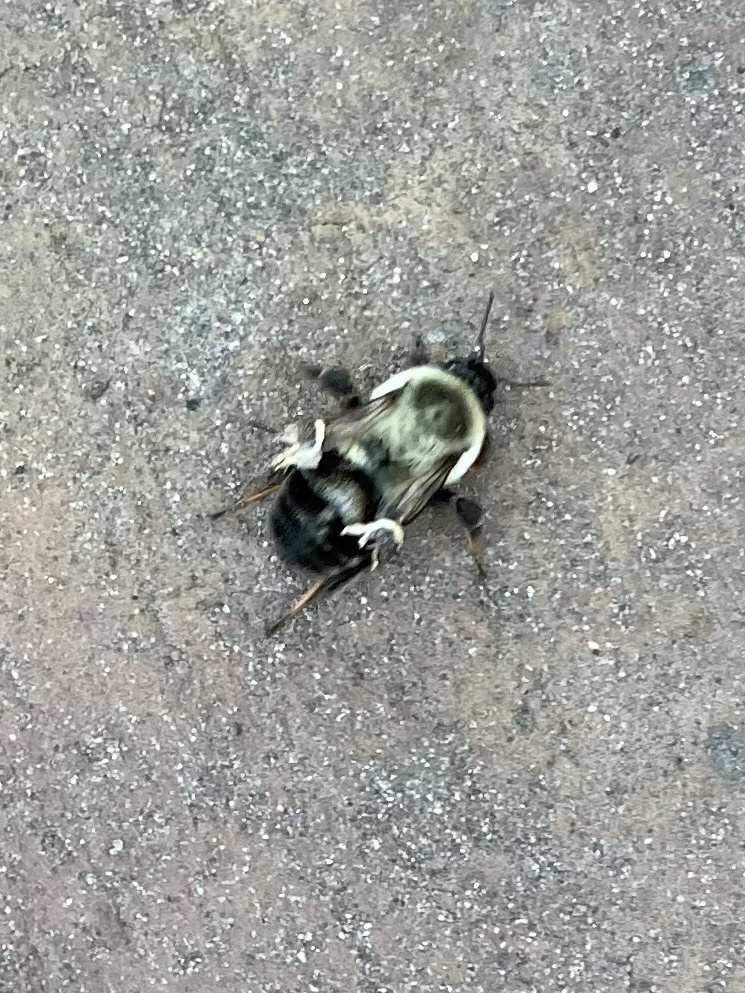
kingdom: Animalia
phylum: Arthropoda
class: Insecta
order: Hymenoptera
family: Apidae
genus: Bombus
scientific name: Bombus impatiens
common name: Common eastern bumble bee
